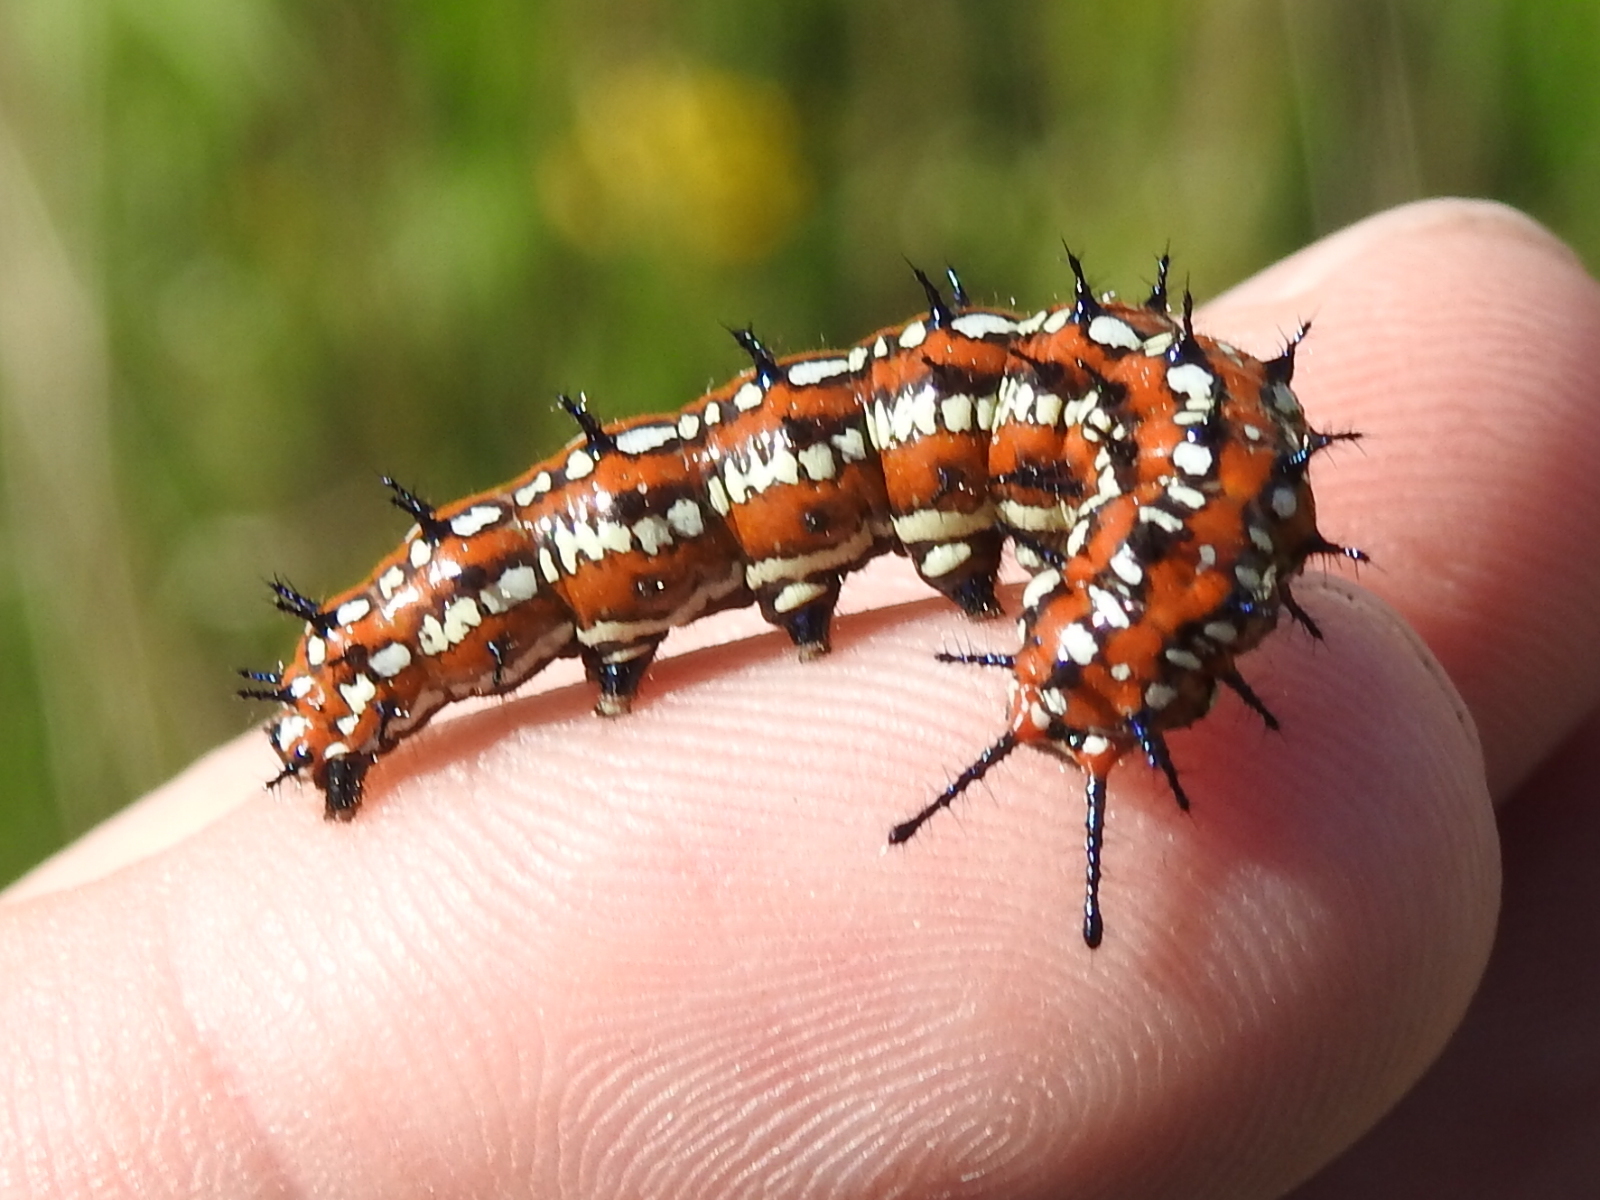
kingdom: Animalia
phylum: Arthropoda
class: Insecta
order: Lepidoptera
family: Nymphalidae
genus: Euptoieta
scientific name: Euptoieta claudia
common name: Variegated fritillary
